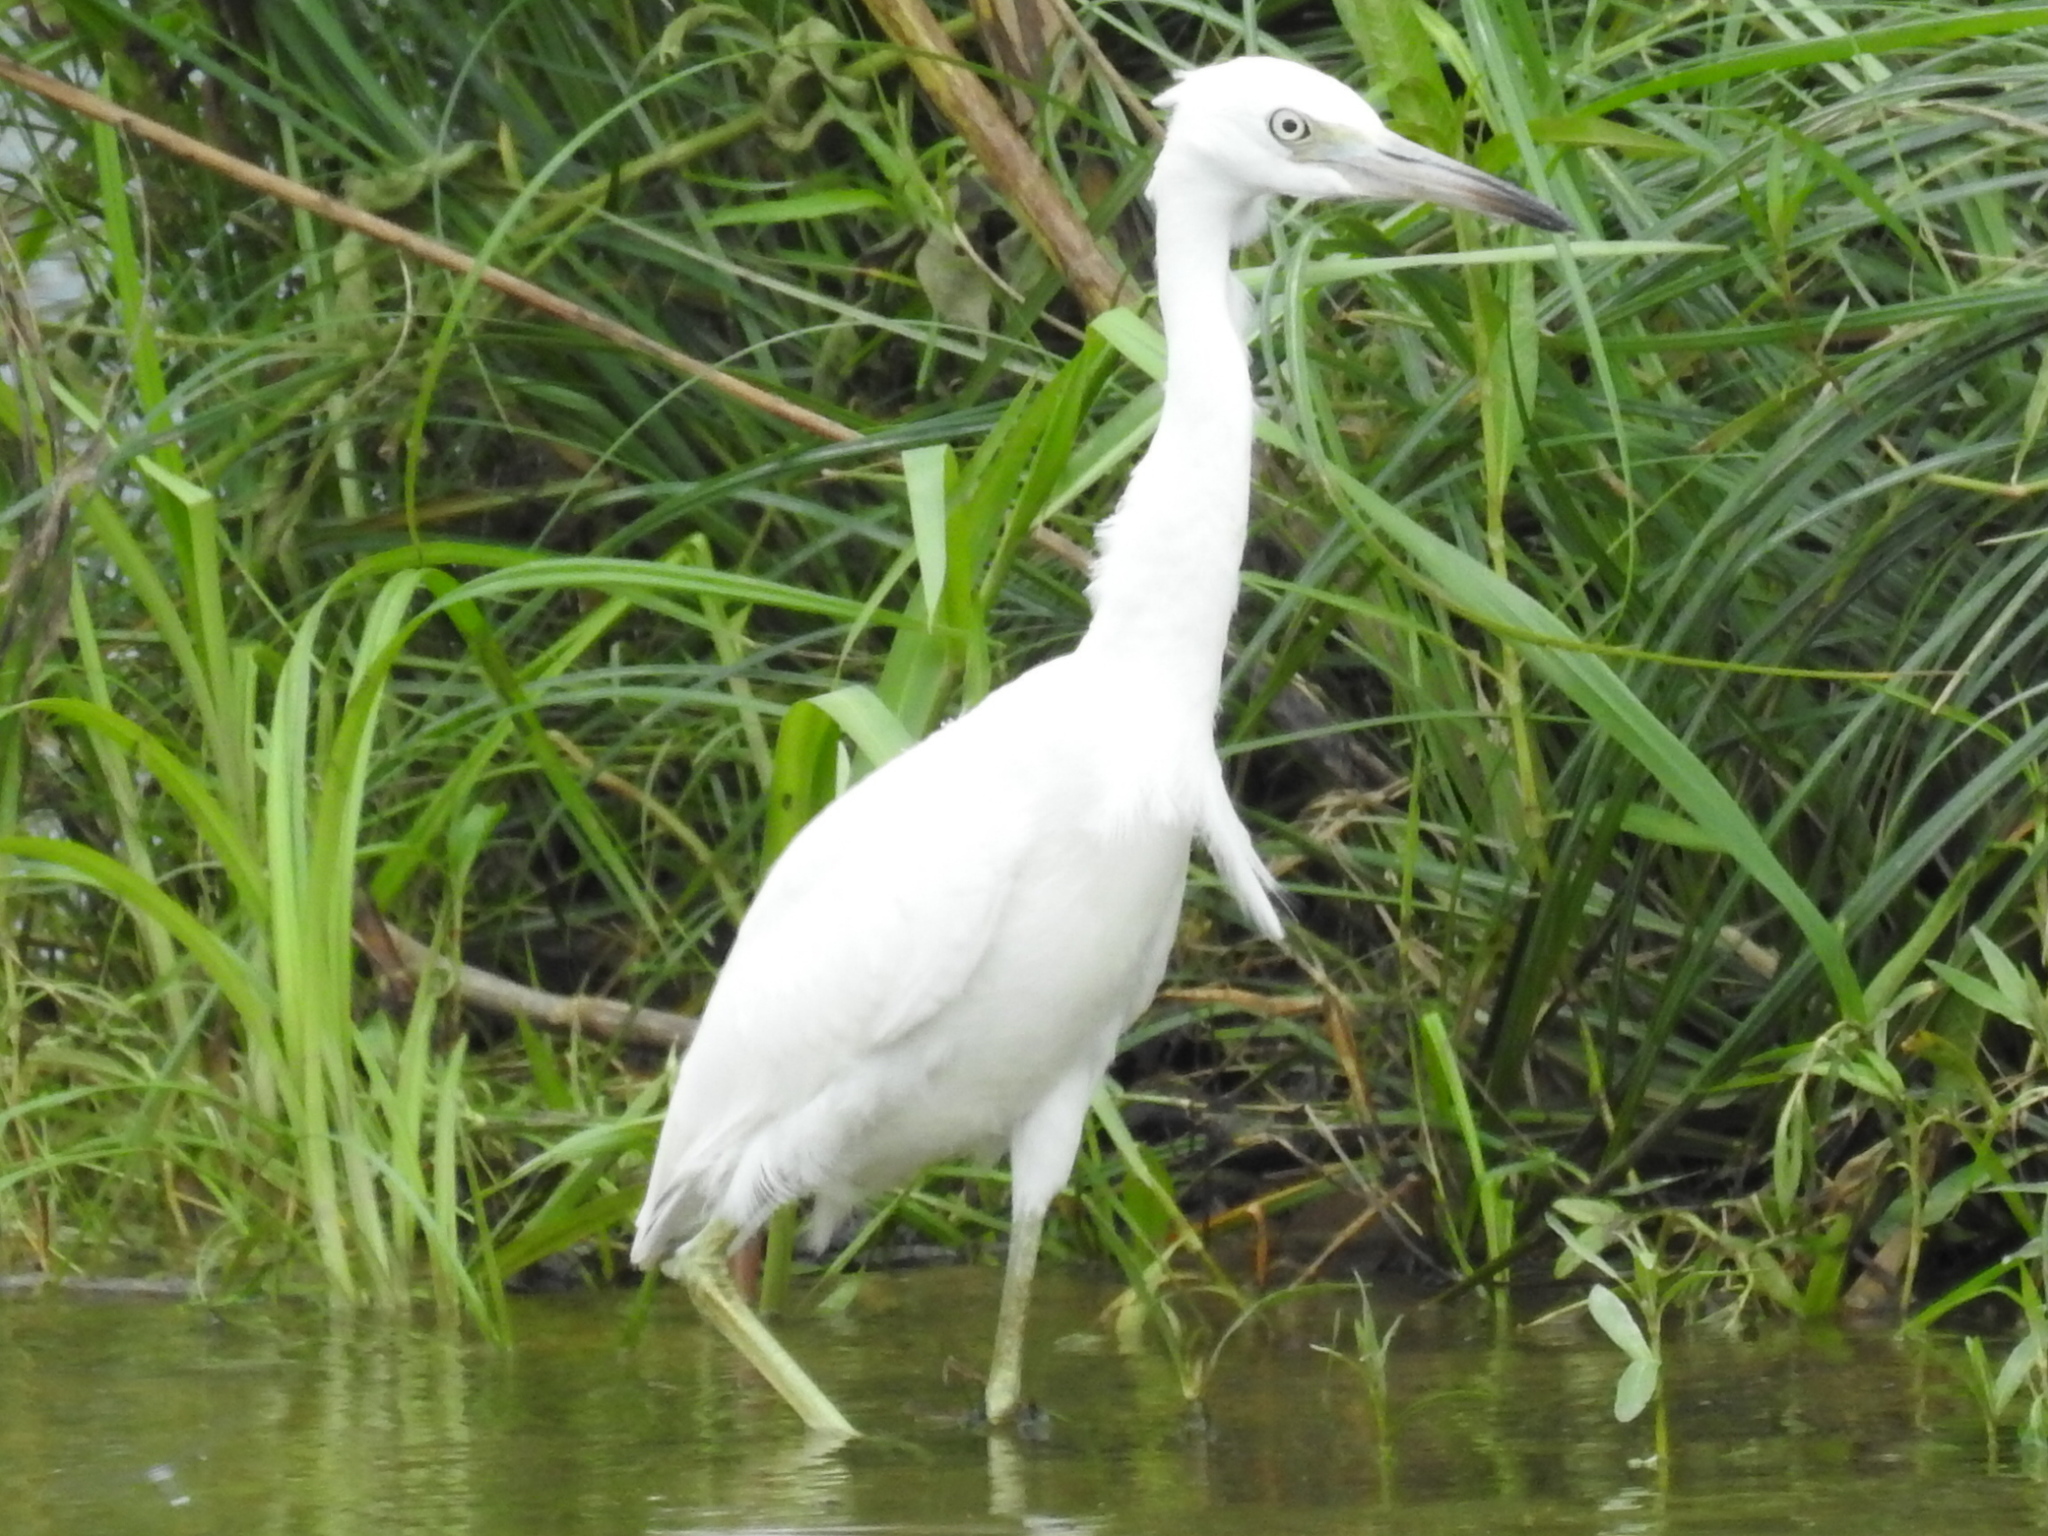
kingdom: Animalia
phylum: Chordata
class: Aves
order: Pelecaniformes
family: Ardeidae
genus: Egretta
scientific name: Egretta caerulea
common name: Little blue heron
